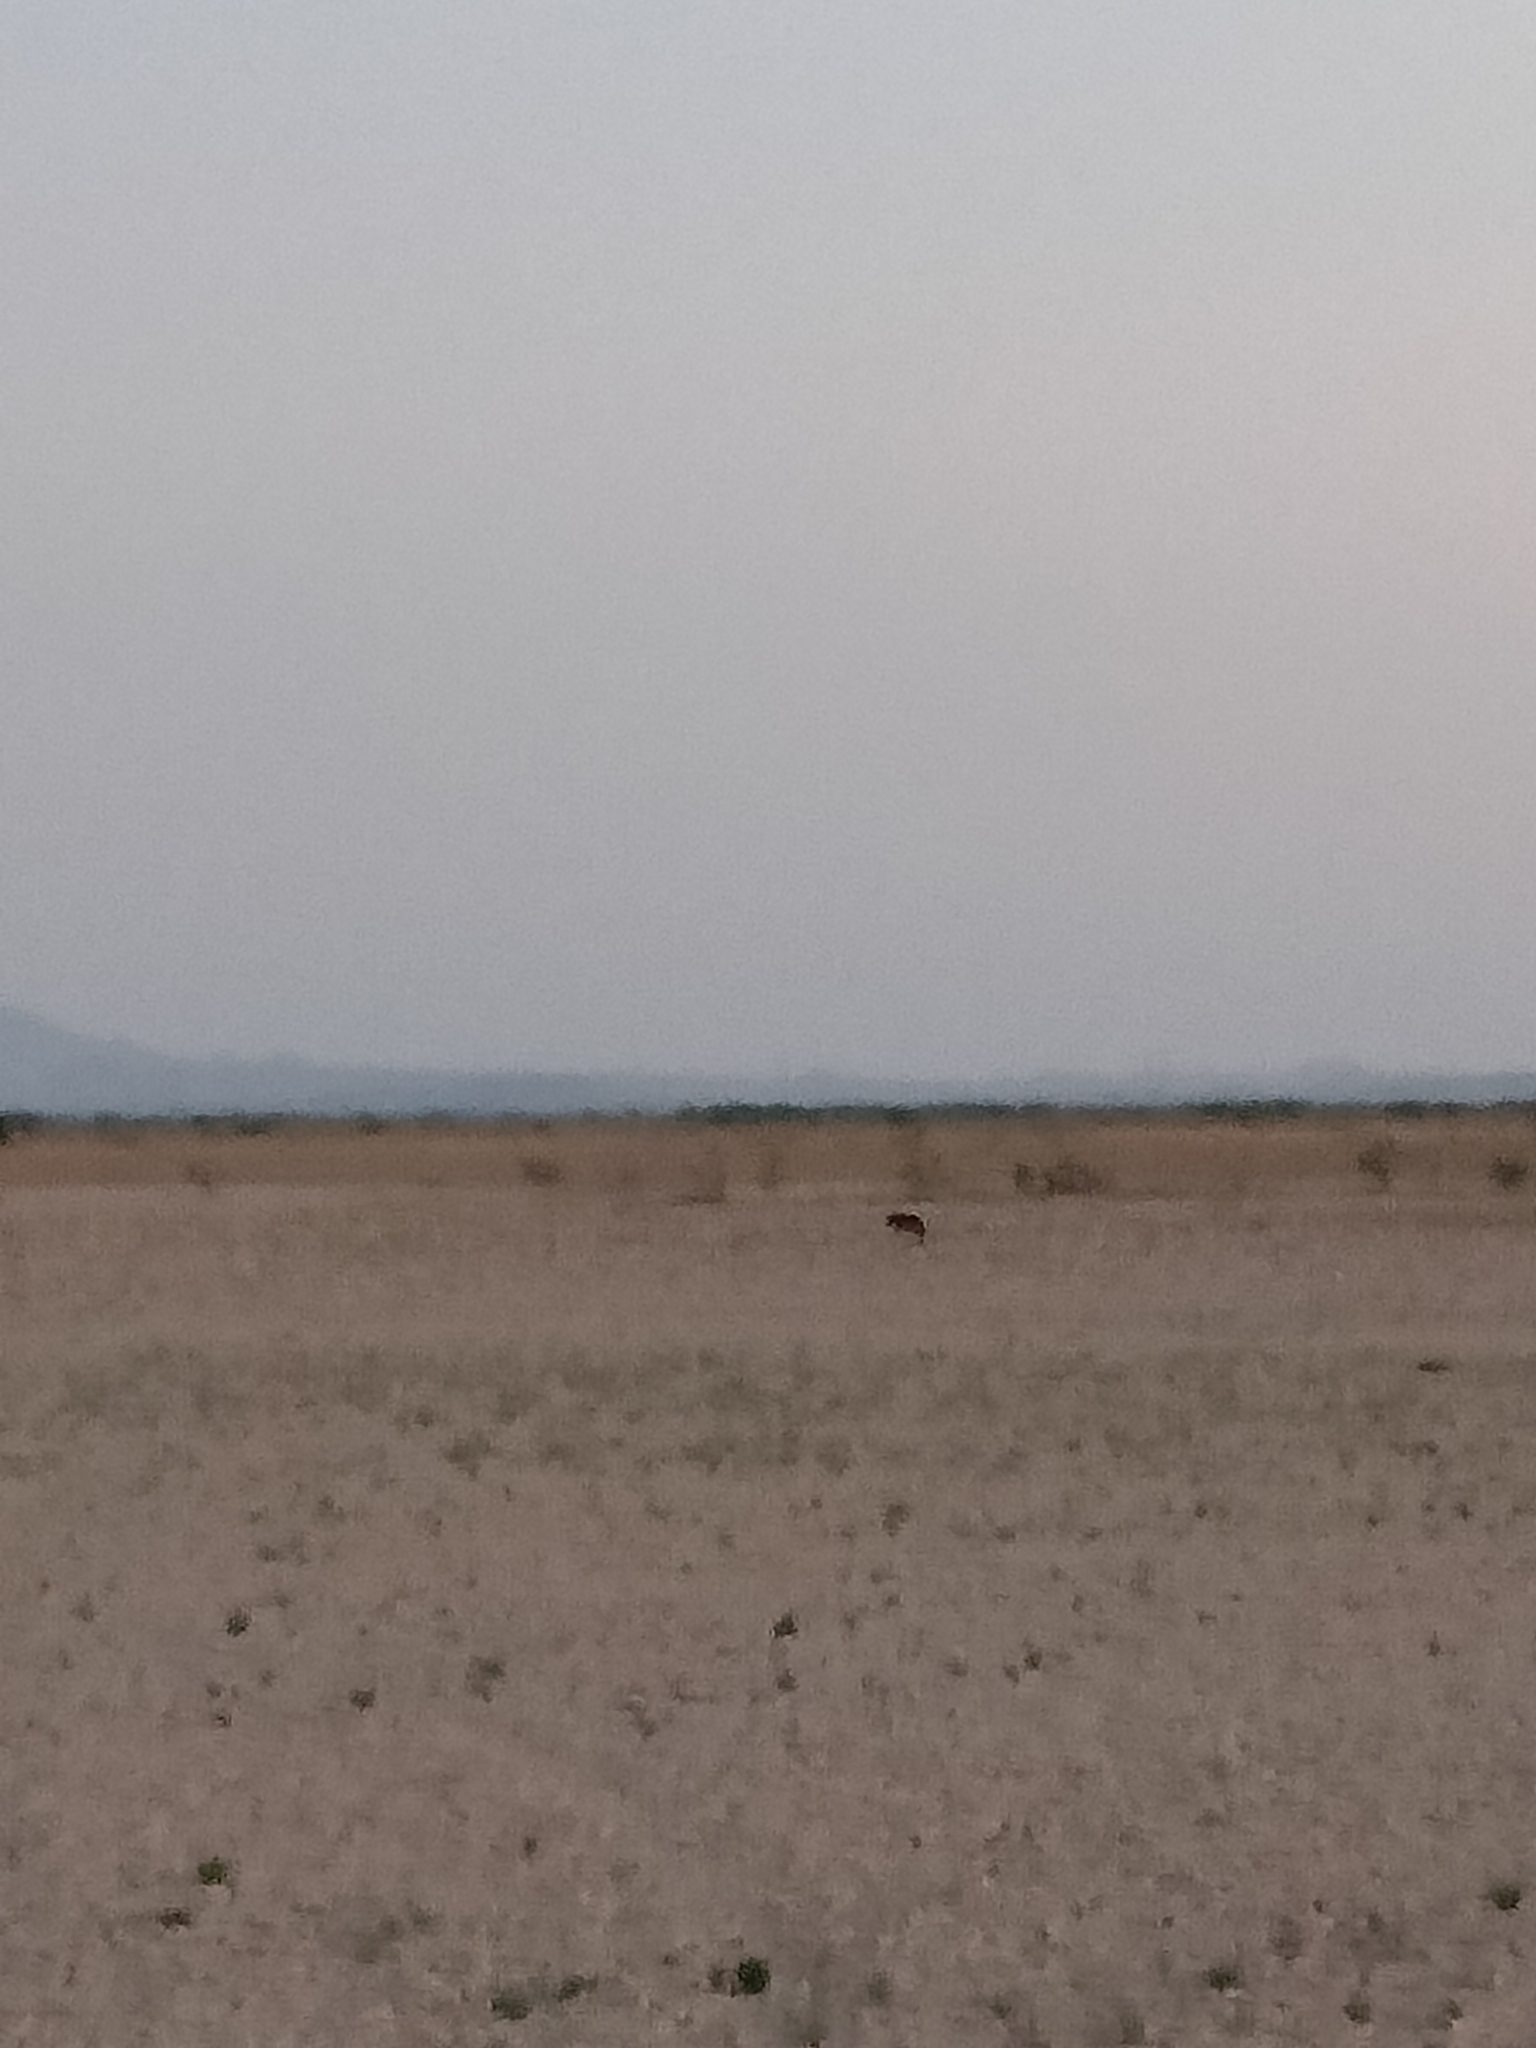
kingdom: Animalia
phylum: Chordata
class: Mammalia
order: Carnivora
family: Canidae
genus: Canis
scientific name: Canis aureus
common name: Golden jackal
